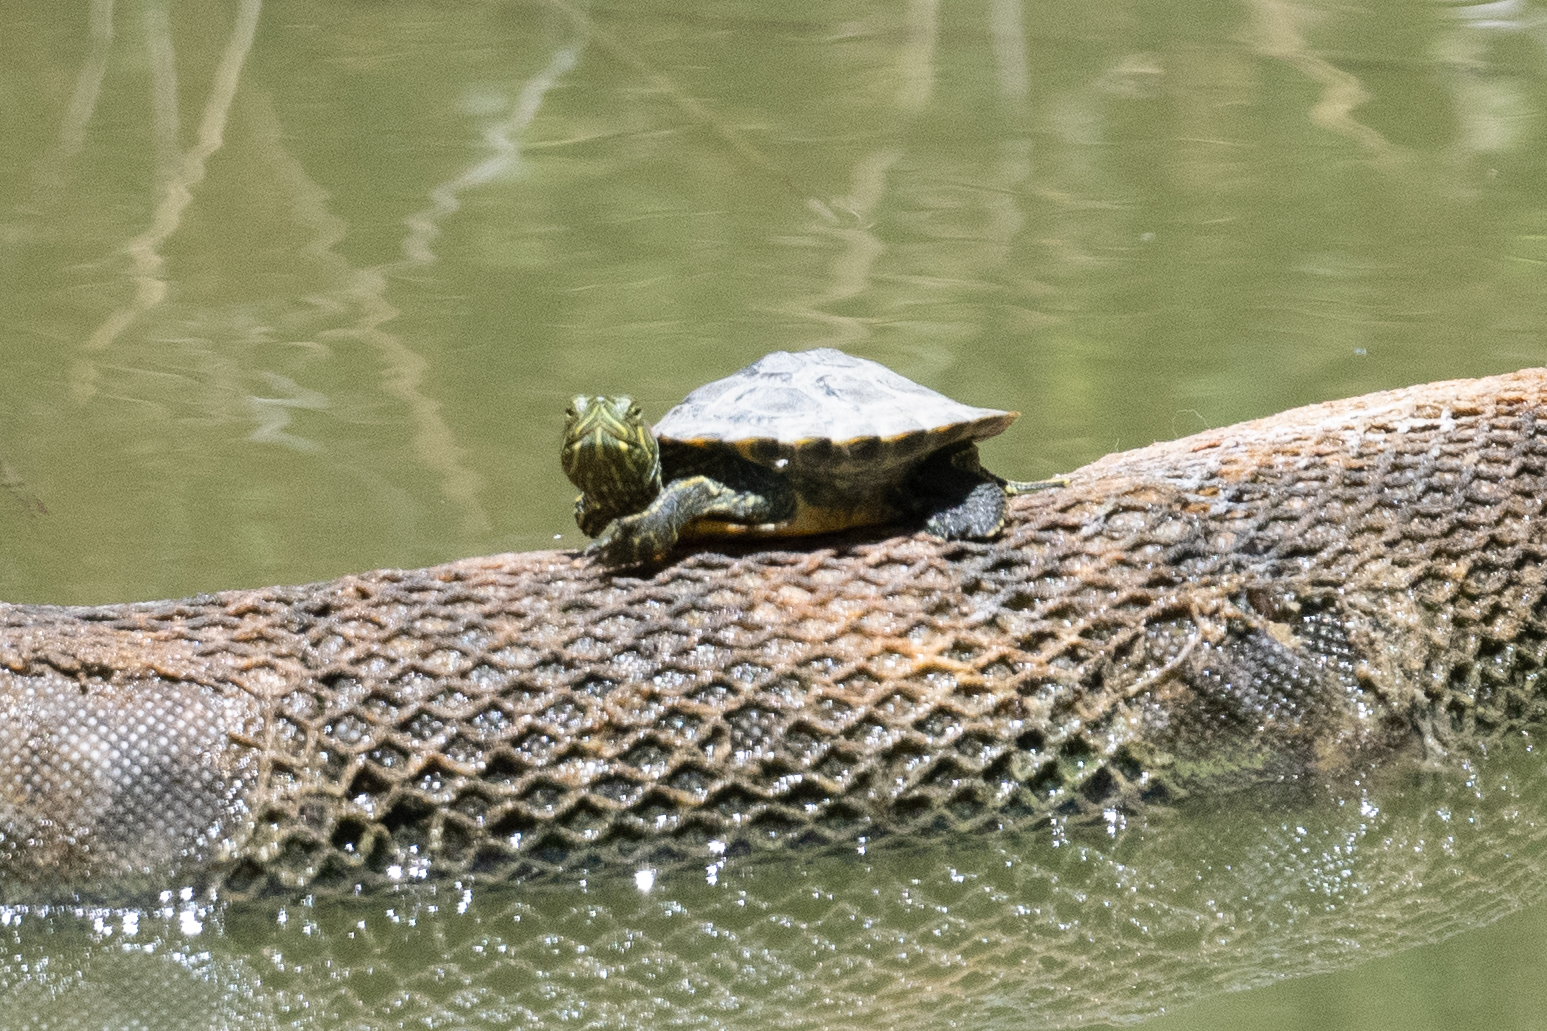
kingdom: Animalia
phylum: Chordata
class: Testudines
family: Emydidae
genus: Trachemys
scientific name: Trachemys scripta
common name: Slider
